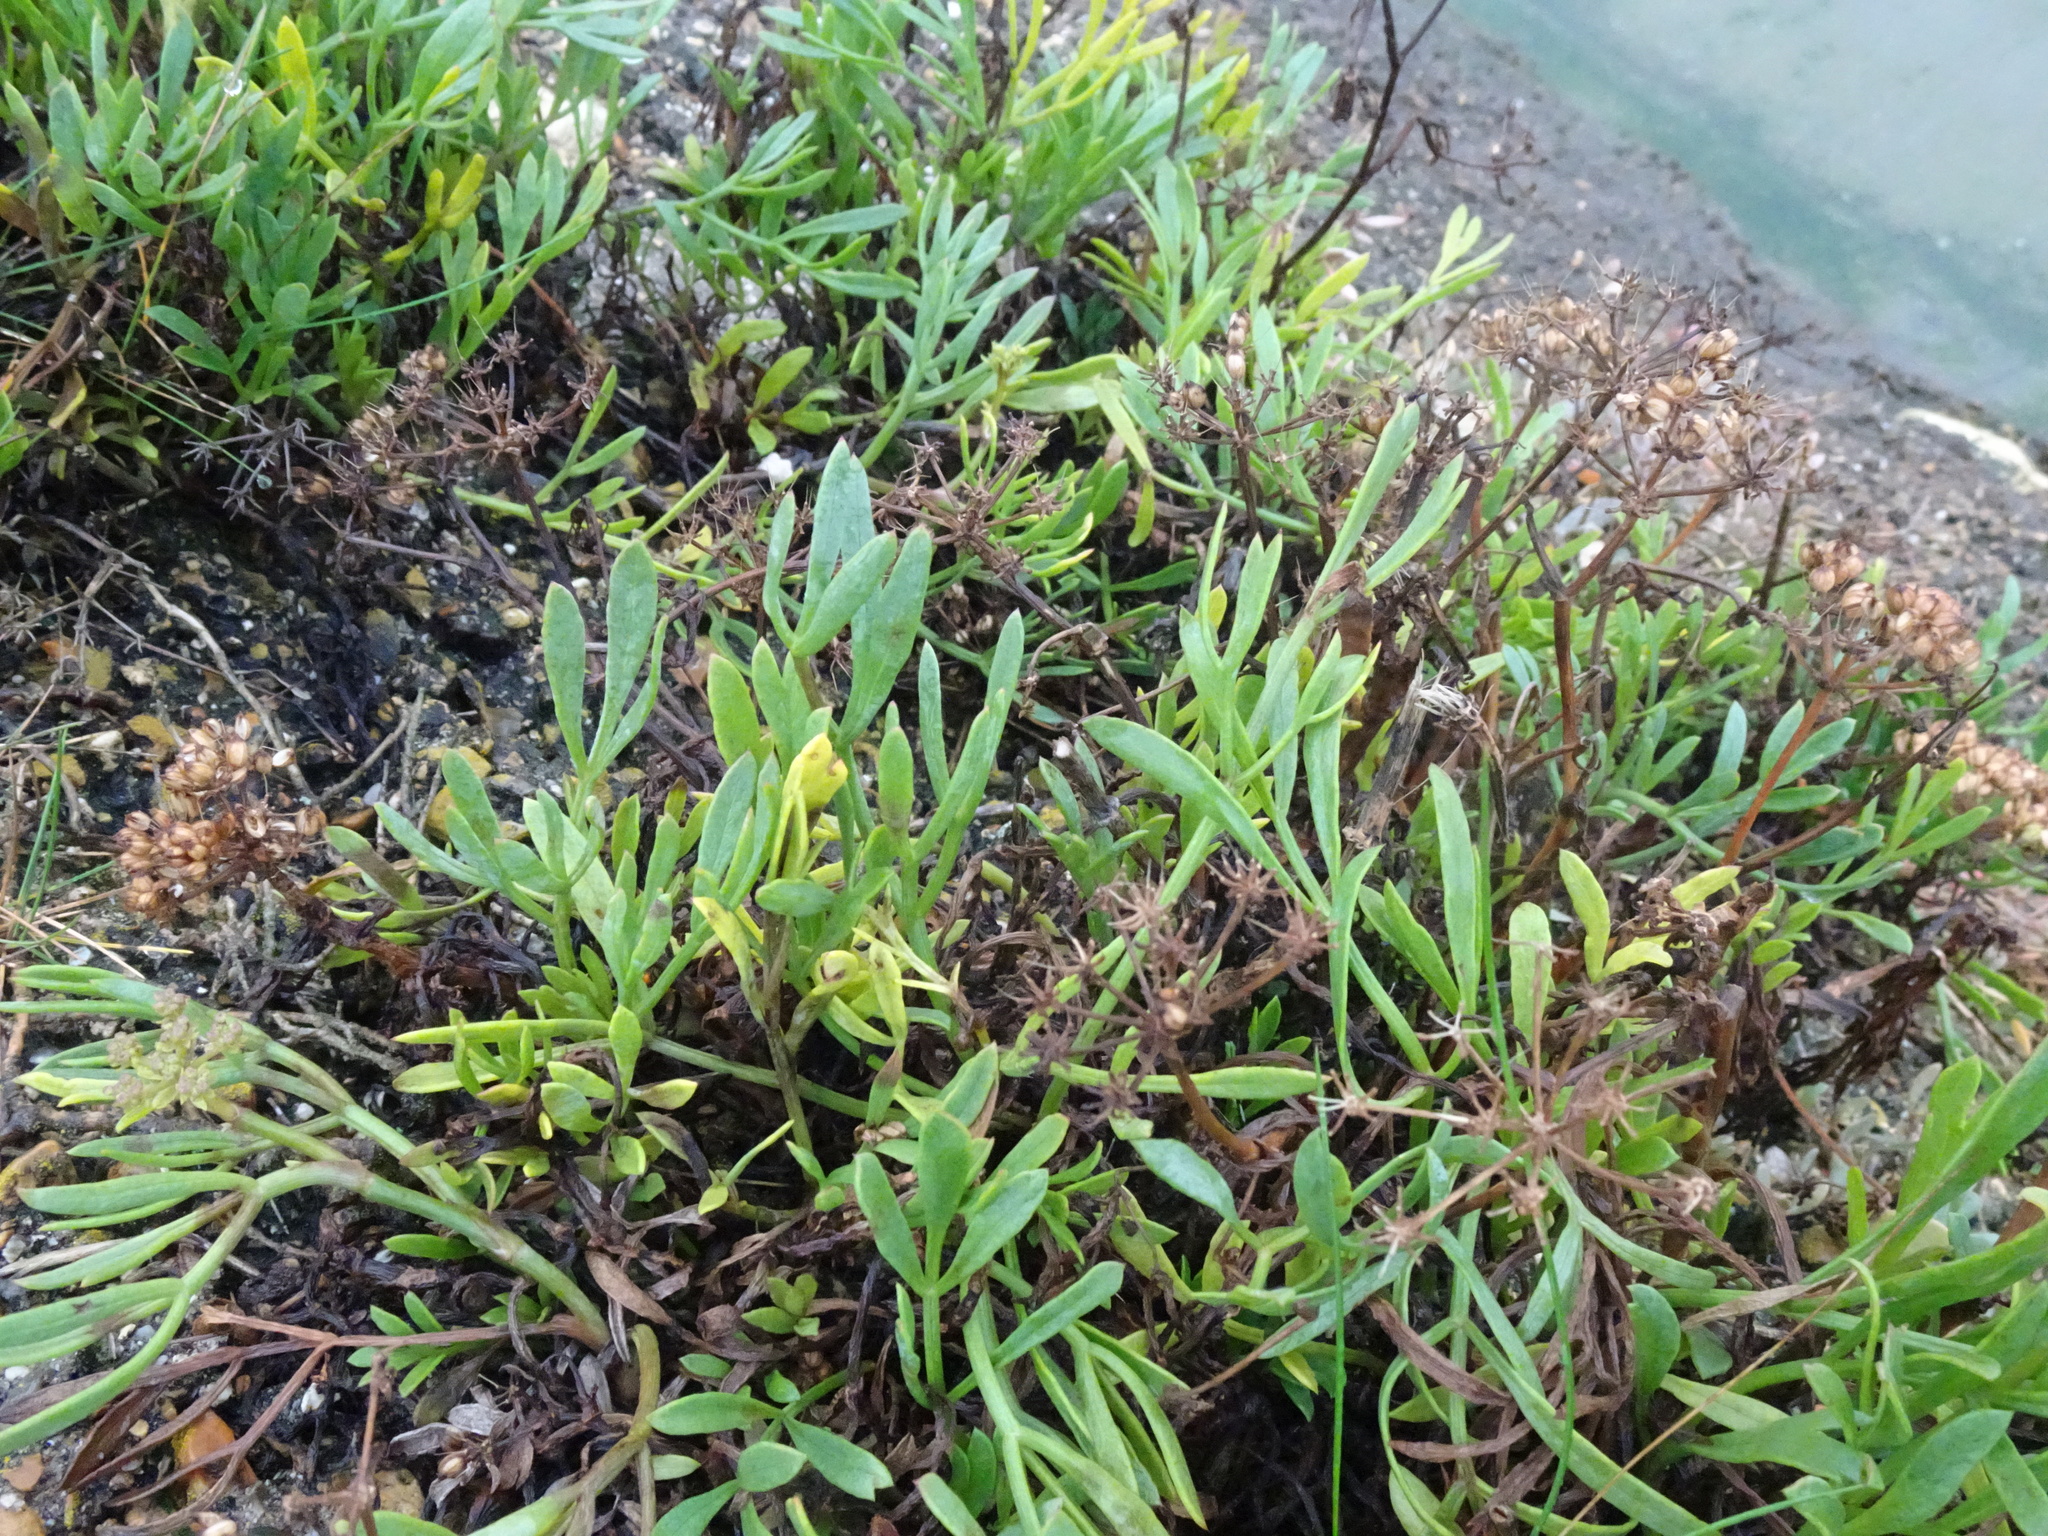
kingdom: Plantae
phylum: Tracheophyta
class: Magnoliopsida
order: Apiales
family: Apiaceae
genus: Crithmum
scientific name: Crithmum maritimum
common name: Rock samphire
